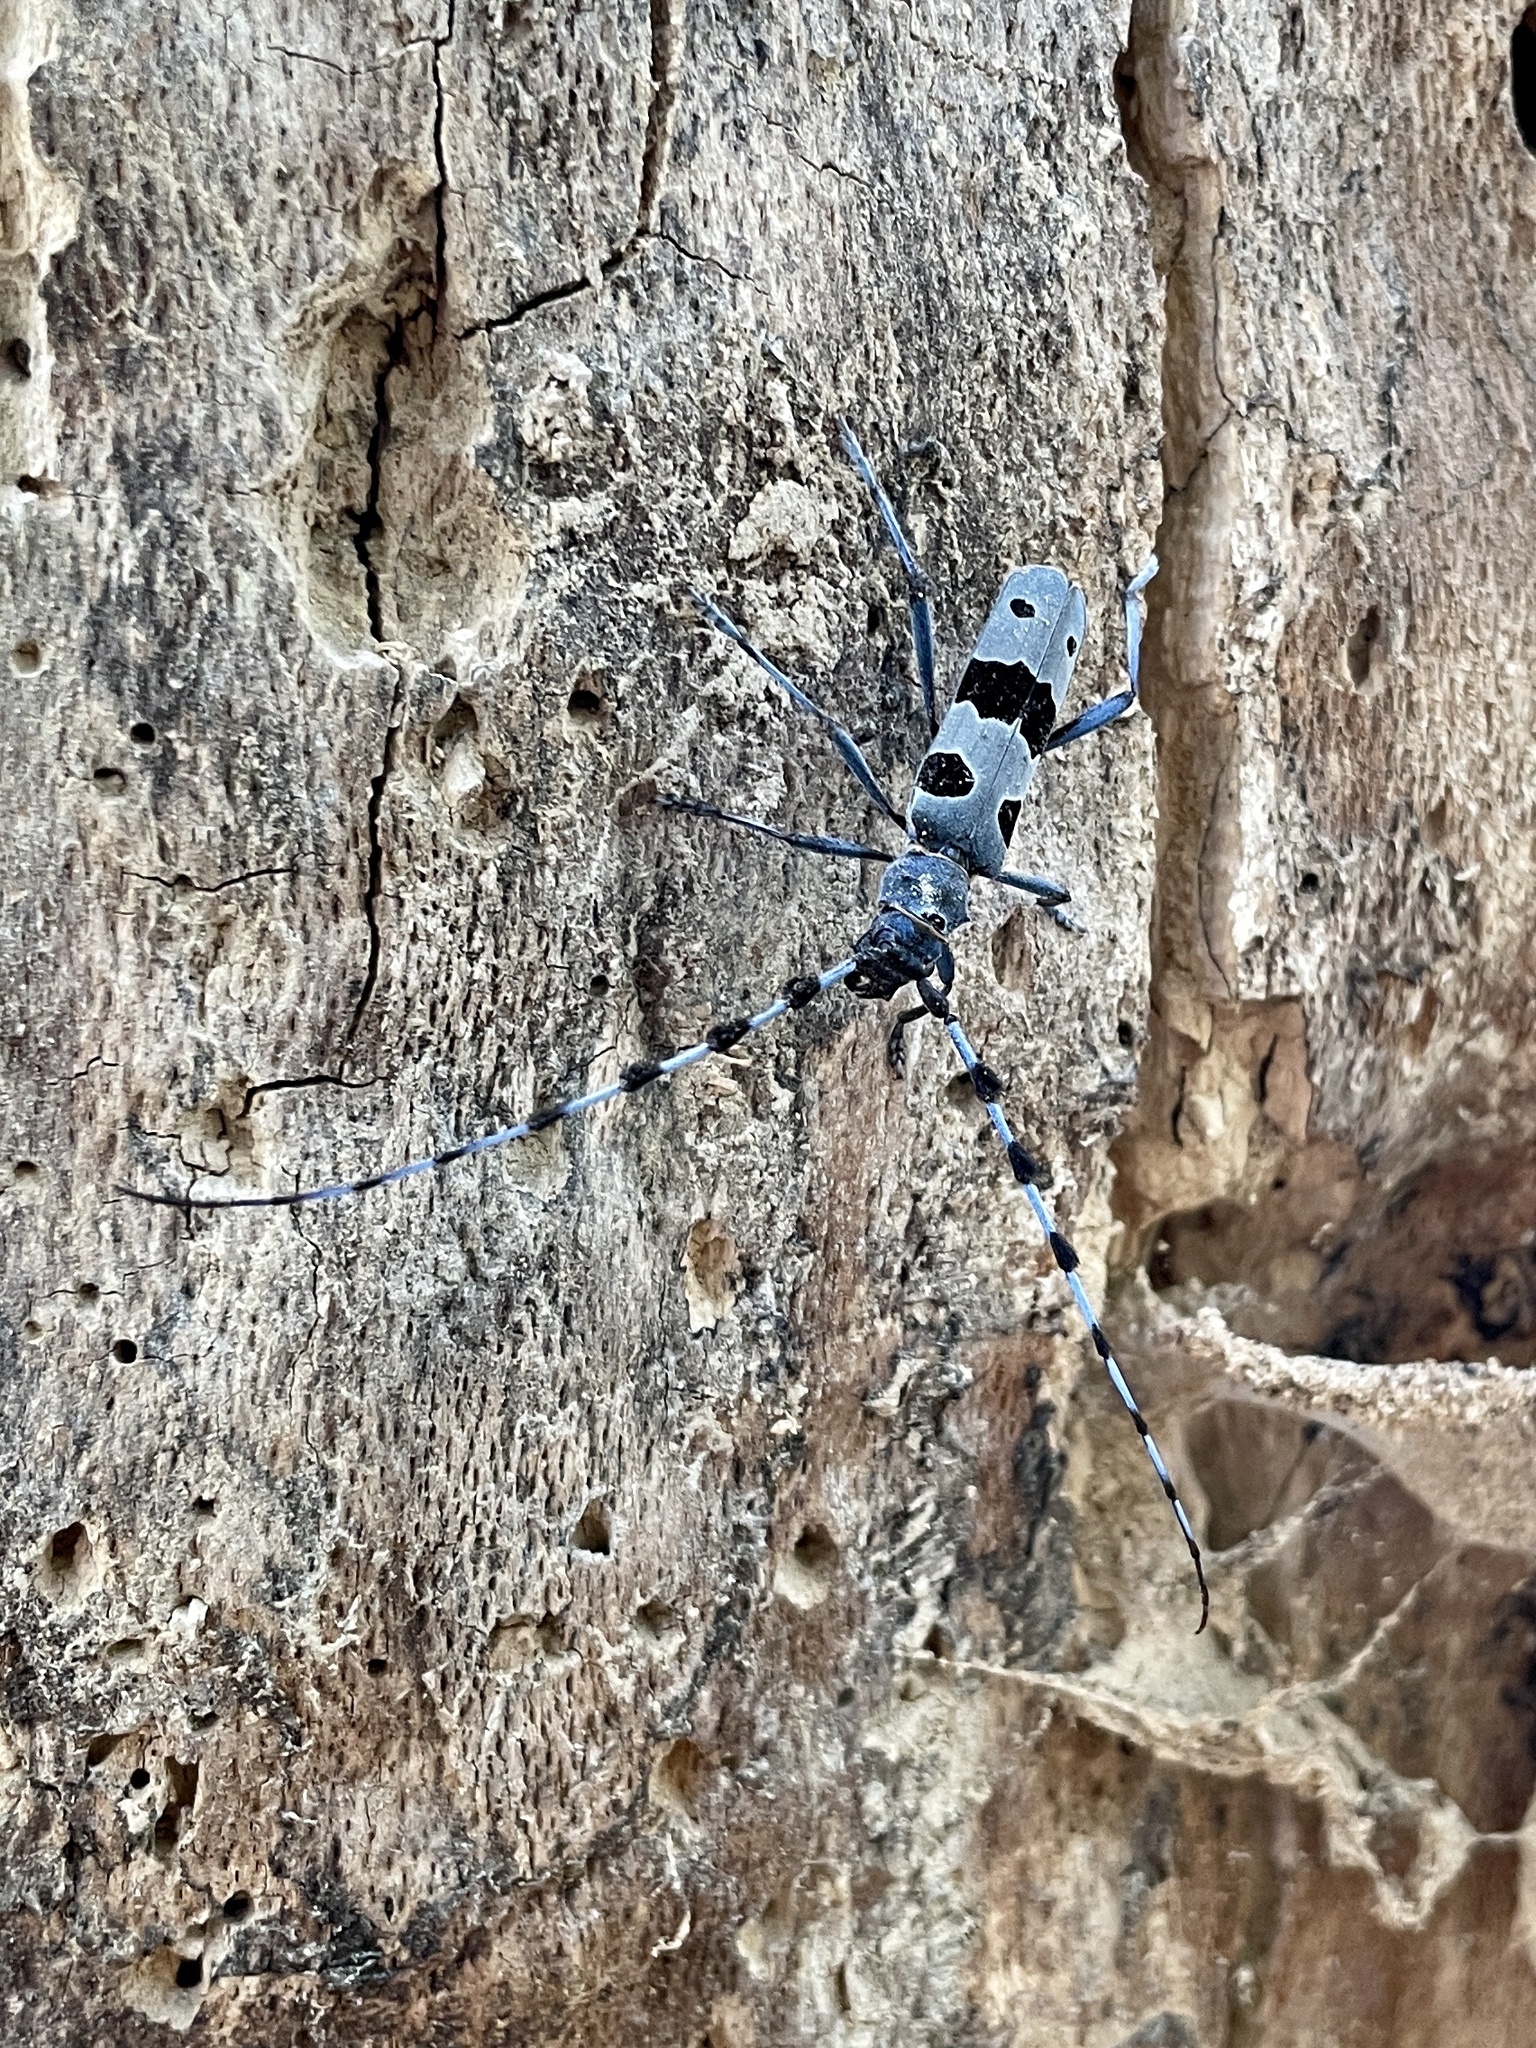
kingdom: Animalia
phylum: Arthropoda
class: Insecta
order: Coleoptera
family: Cerambycidae
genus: Rosalia
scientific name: Rosalia alpina
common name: Rosalia longicorn
